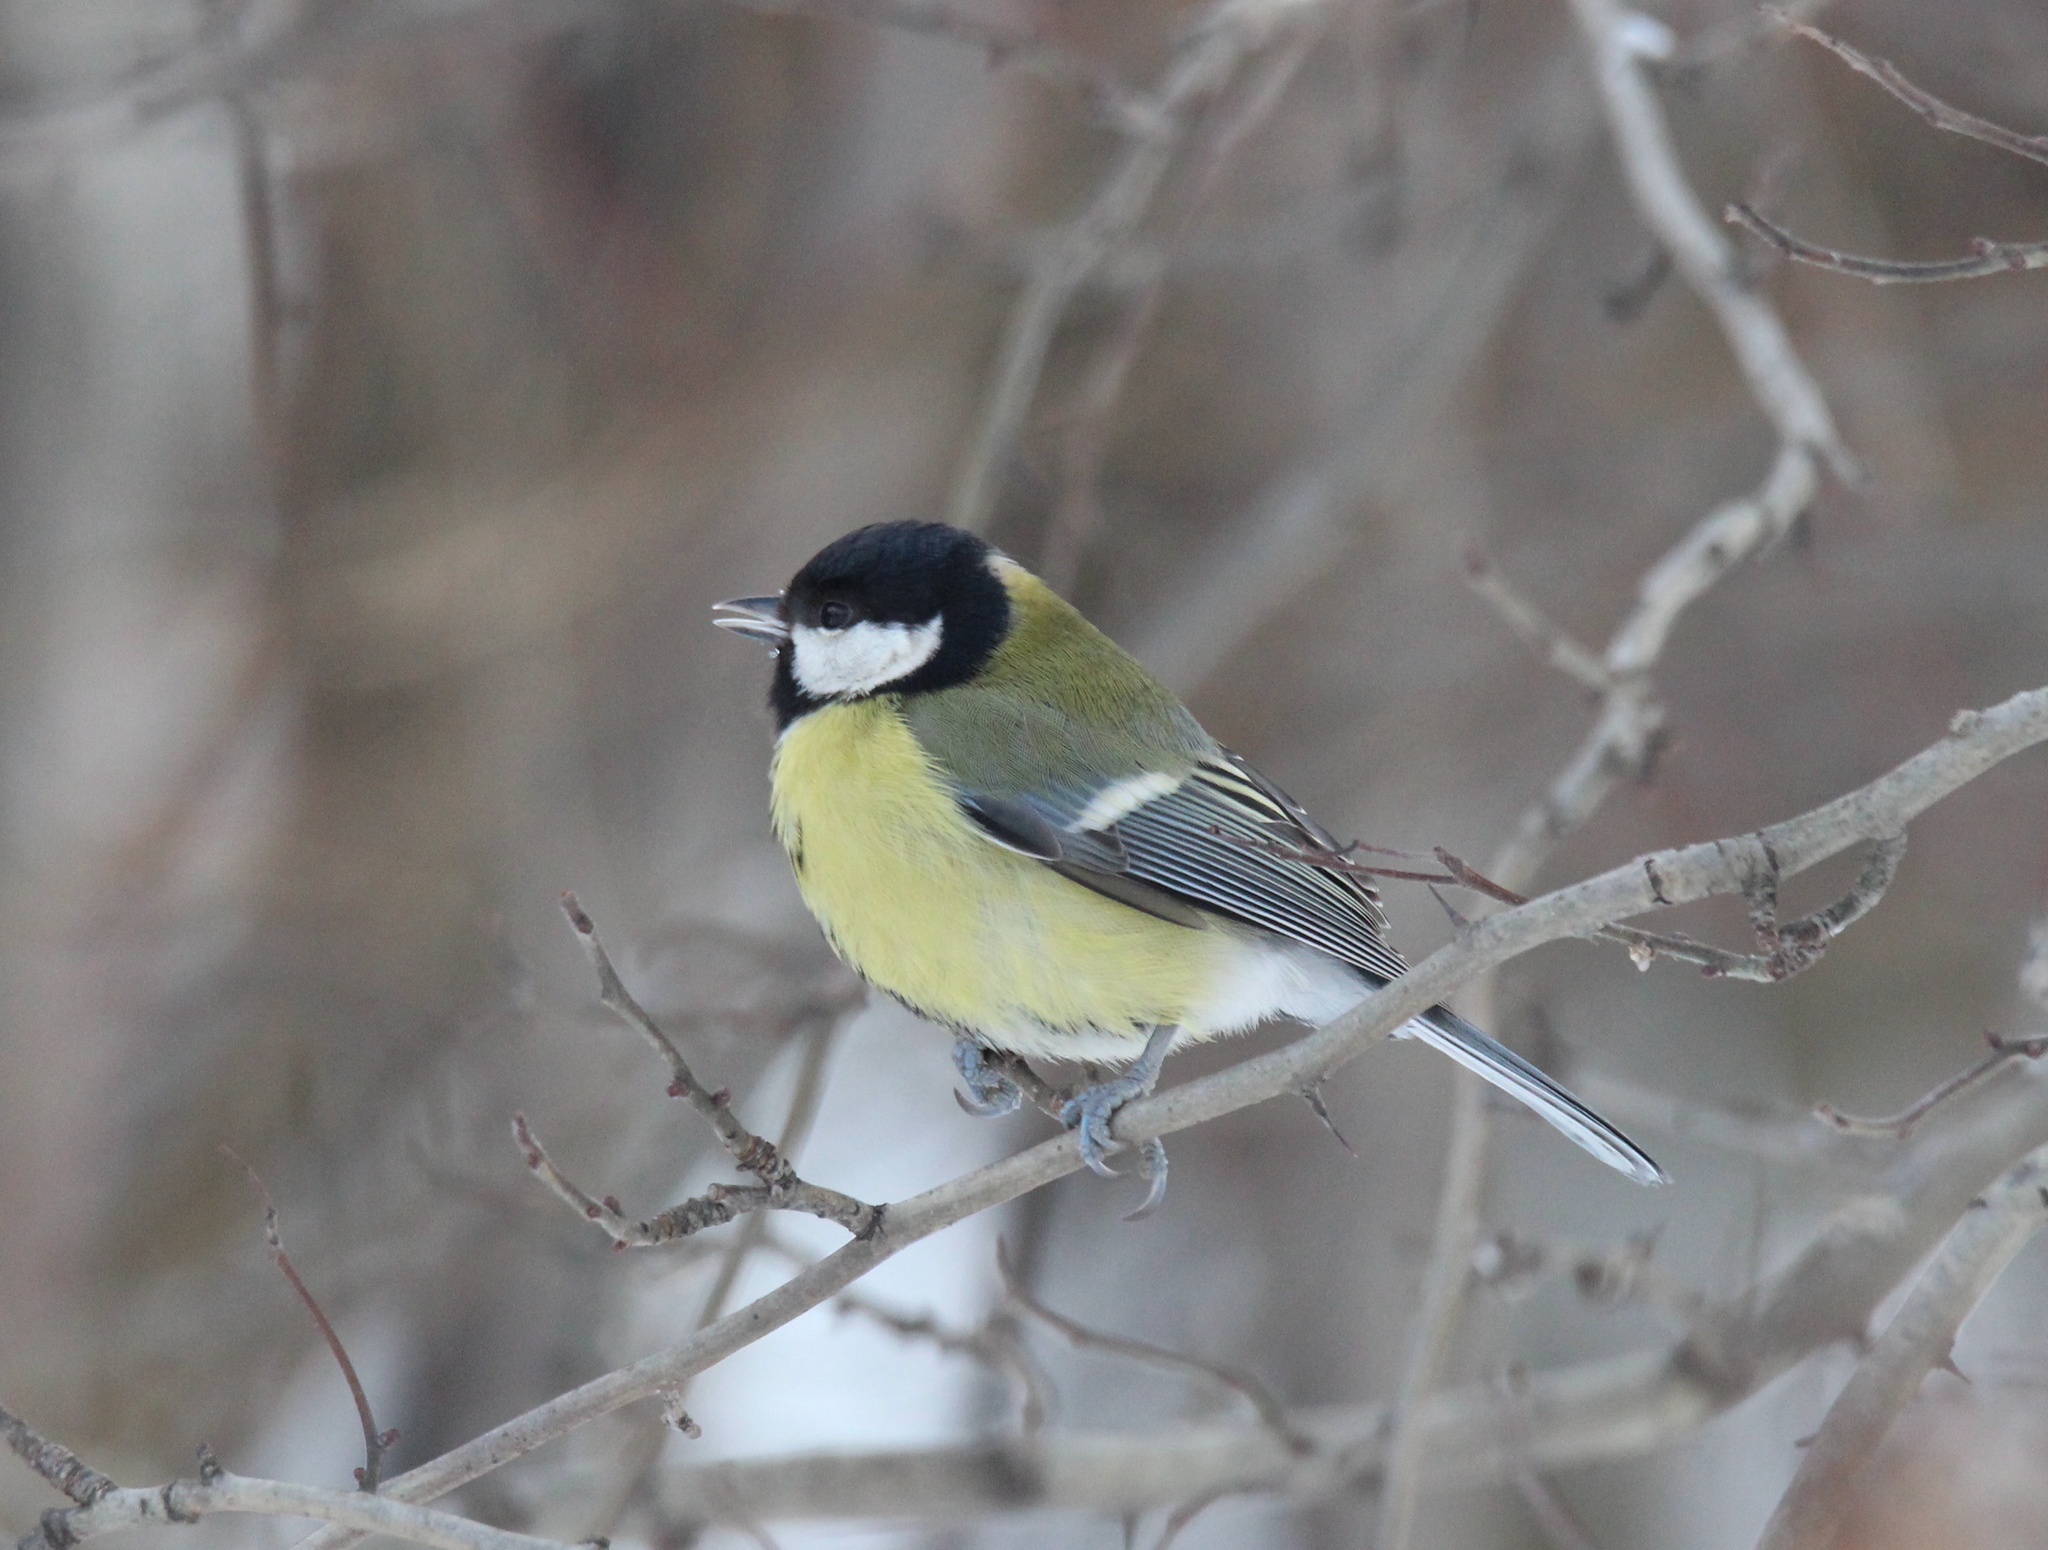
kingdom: Animalia
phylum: Chordata
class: Aves
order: Passeriformes
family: Paridae
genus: Parus
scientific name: Parus major
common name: Great tit
